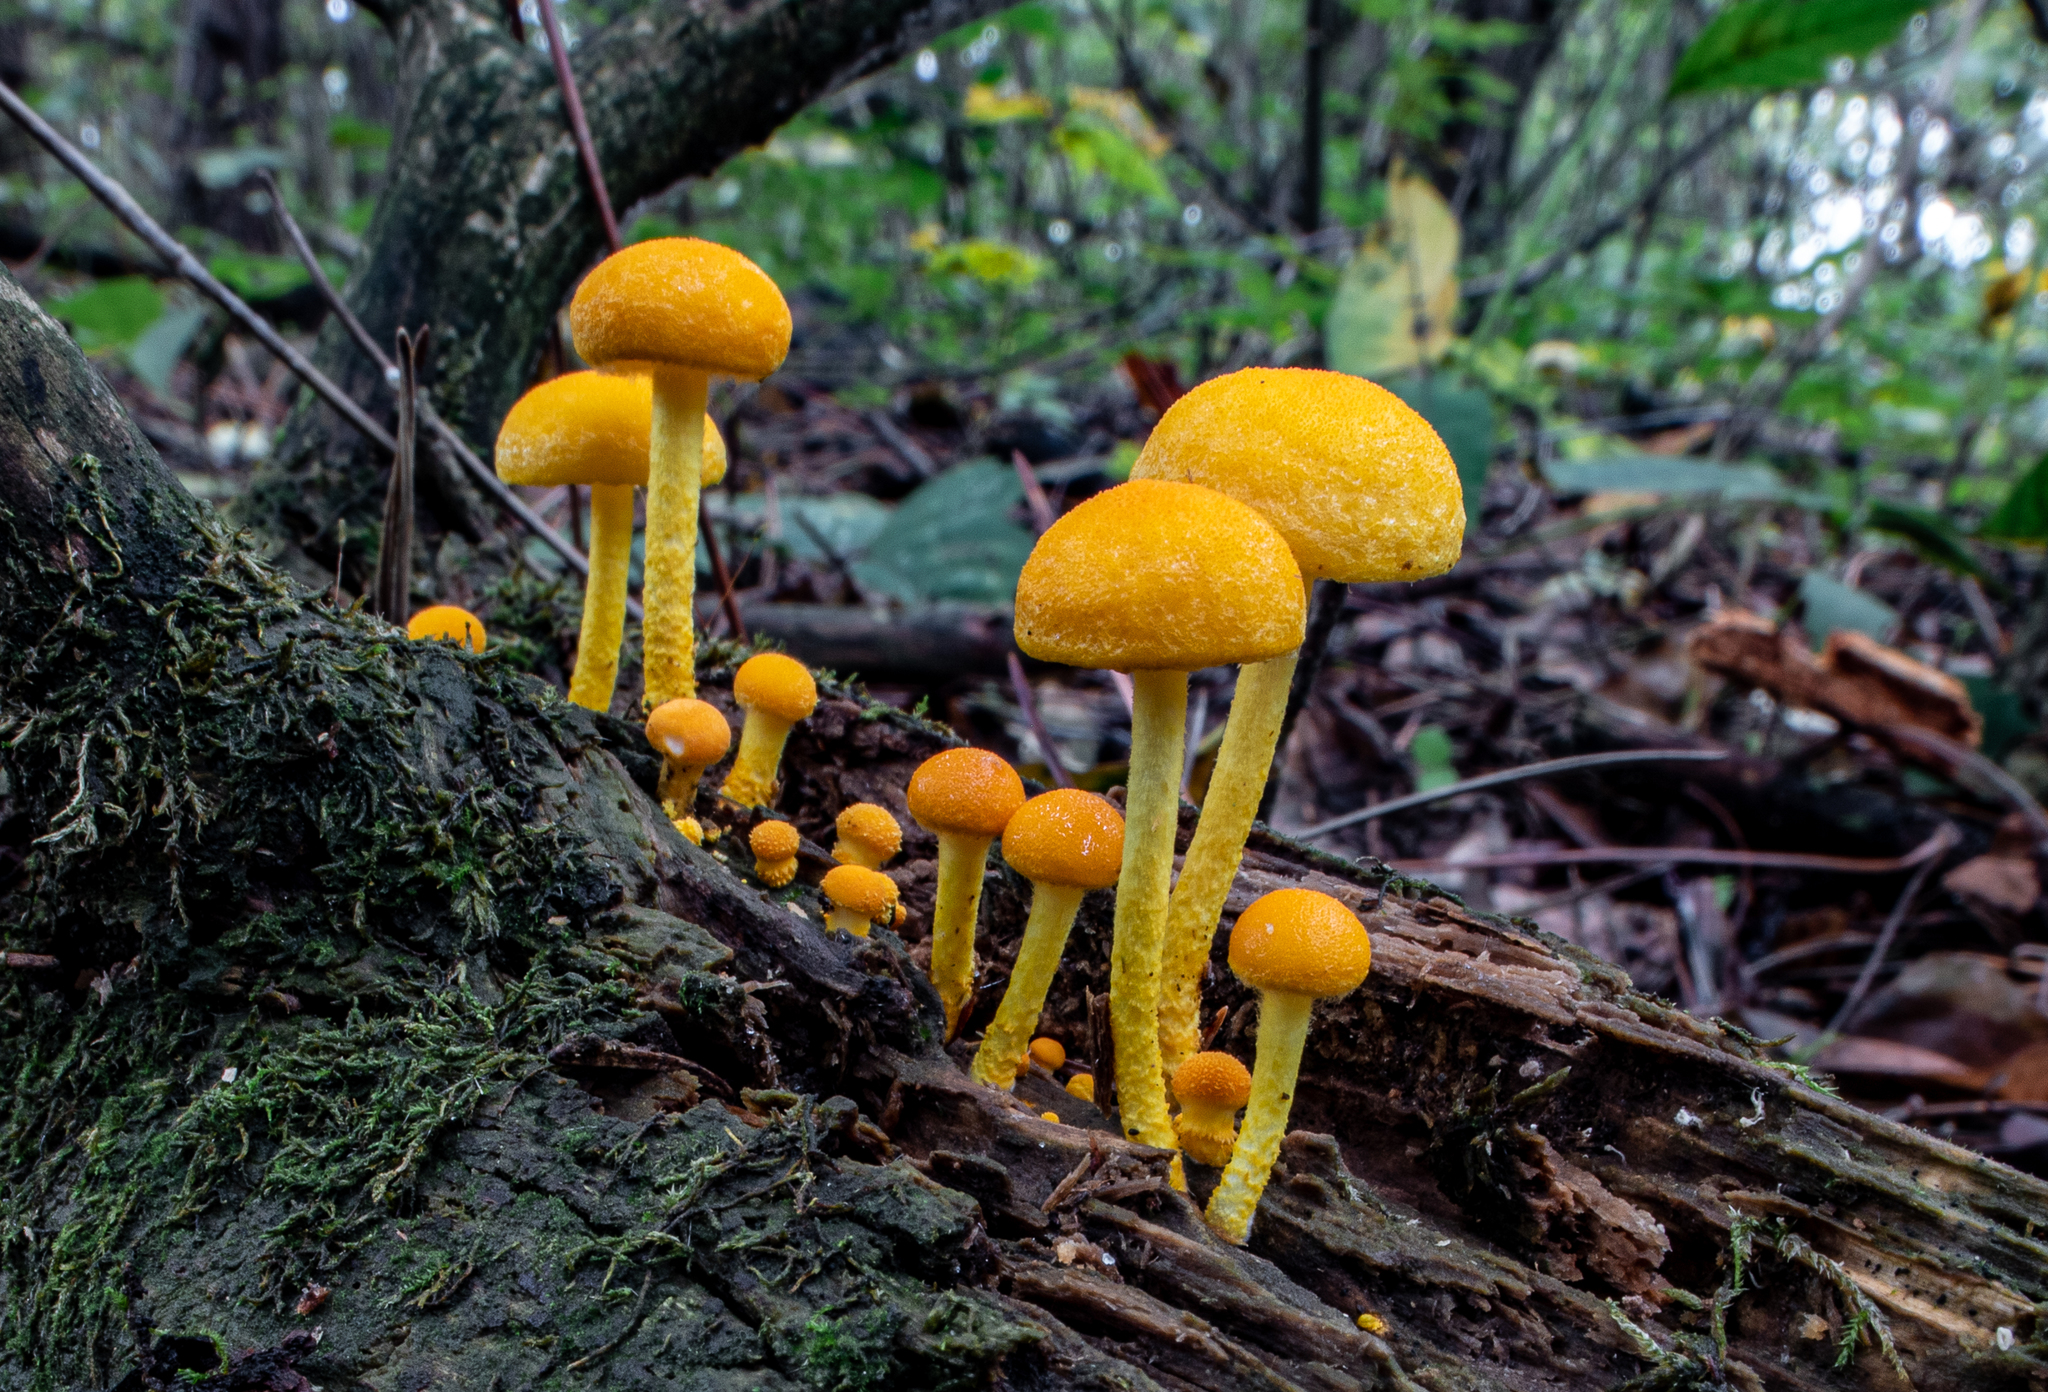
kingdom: Fungi
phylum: Basidiomycota
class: Agaricomycetes
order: Agaricales
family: Physalacriaceae
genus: Cyptotrama
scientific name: Cyptotrama chrysopepla
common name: Golden coincap
